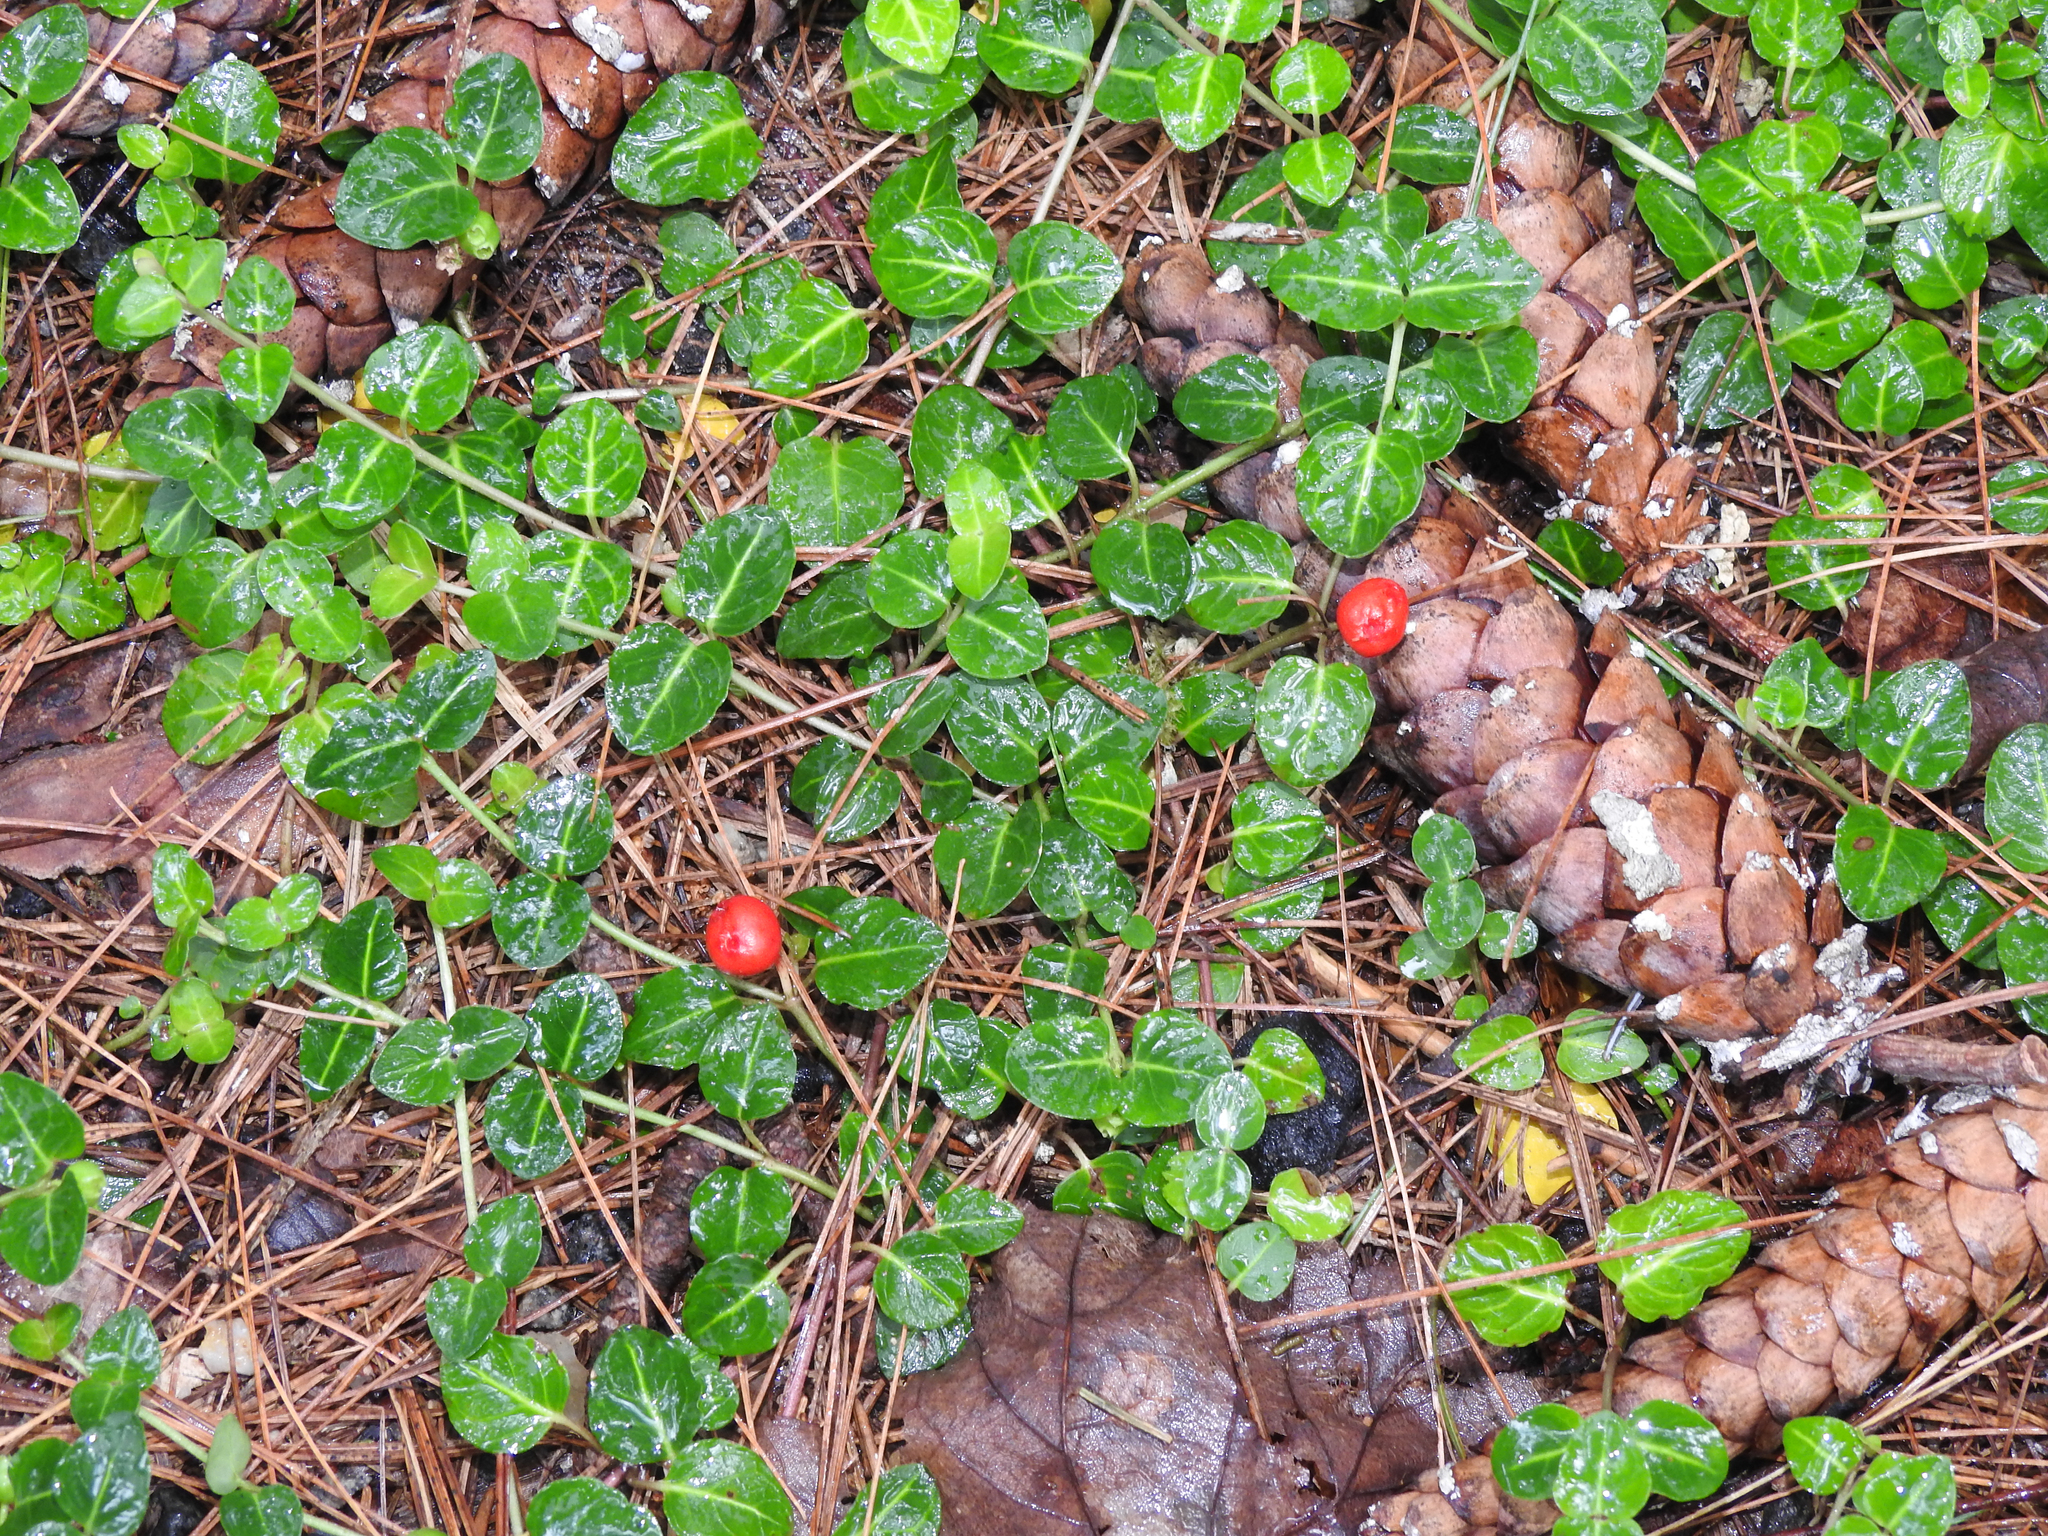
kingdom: Plantae
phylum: Tracheophyta
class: Magnoliopsida
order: Gentianales
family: Rubiaceae
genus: Mitchella
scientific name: Mitchella repens
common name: Partridge-berry
